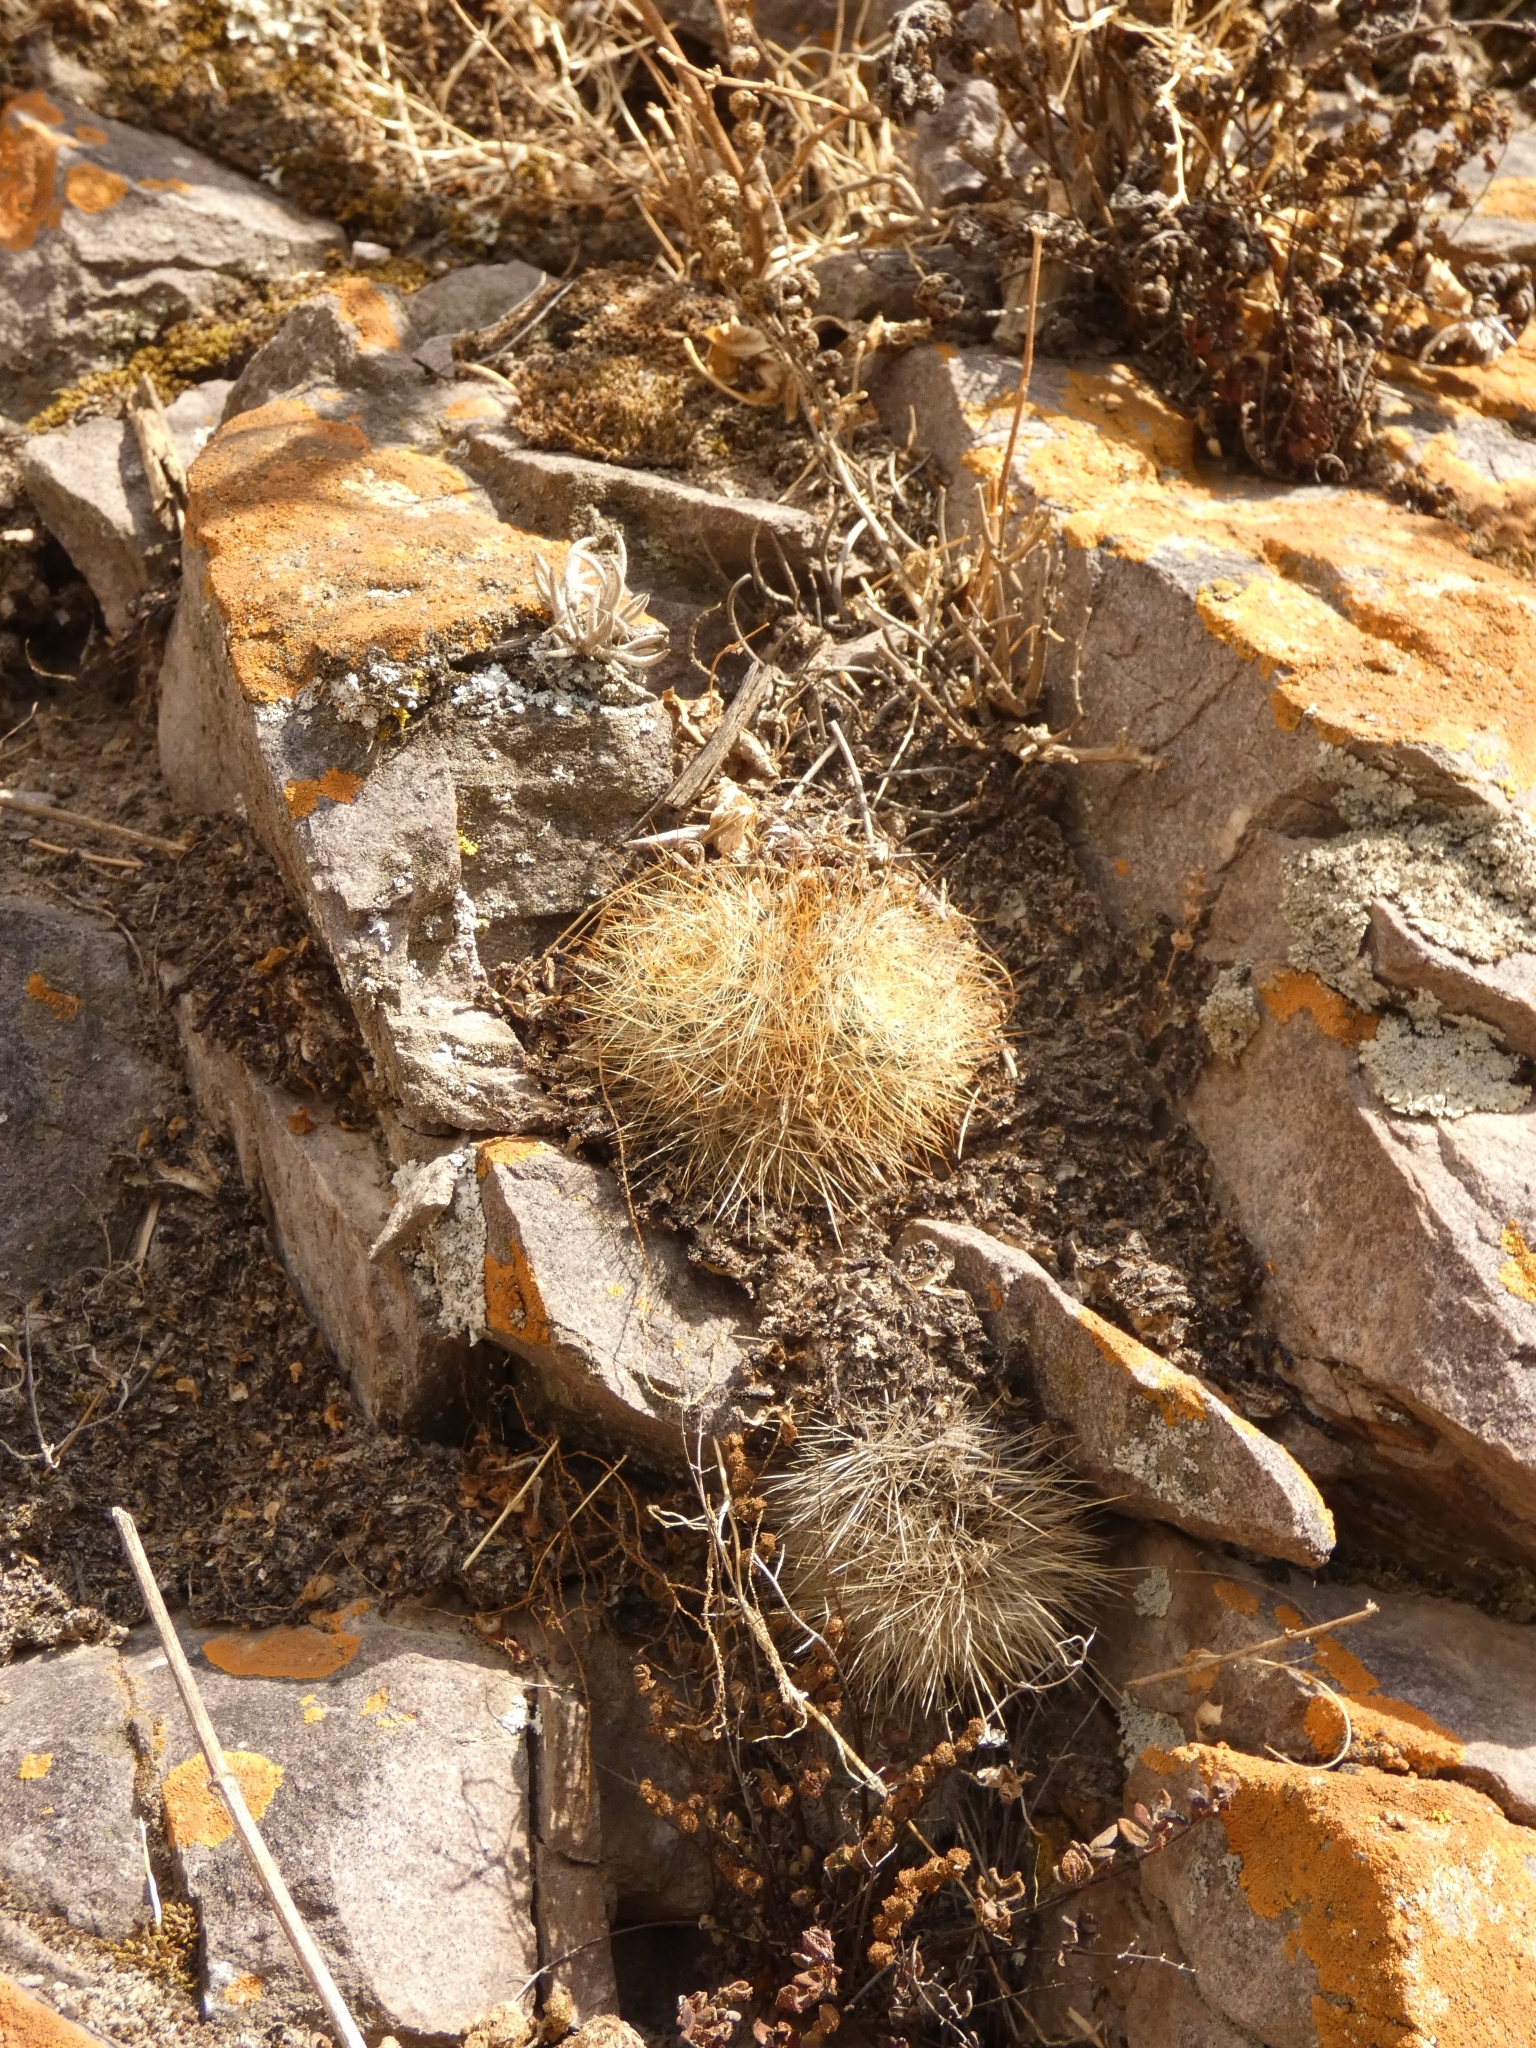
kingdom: Plantae
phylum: Tracheophyta
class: Magnoliopsida
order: Caryophyllales
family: Cactaceae
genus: Aylostera
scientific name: Aylostera deminuta
